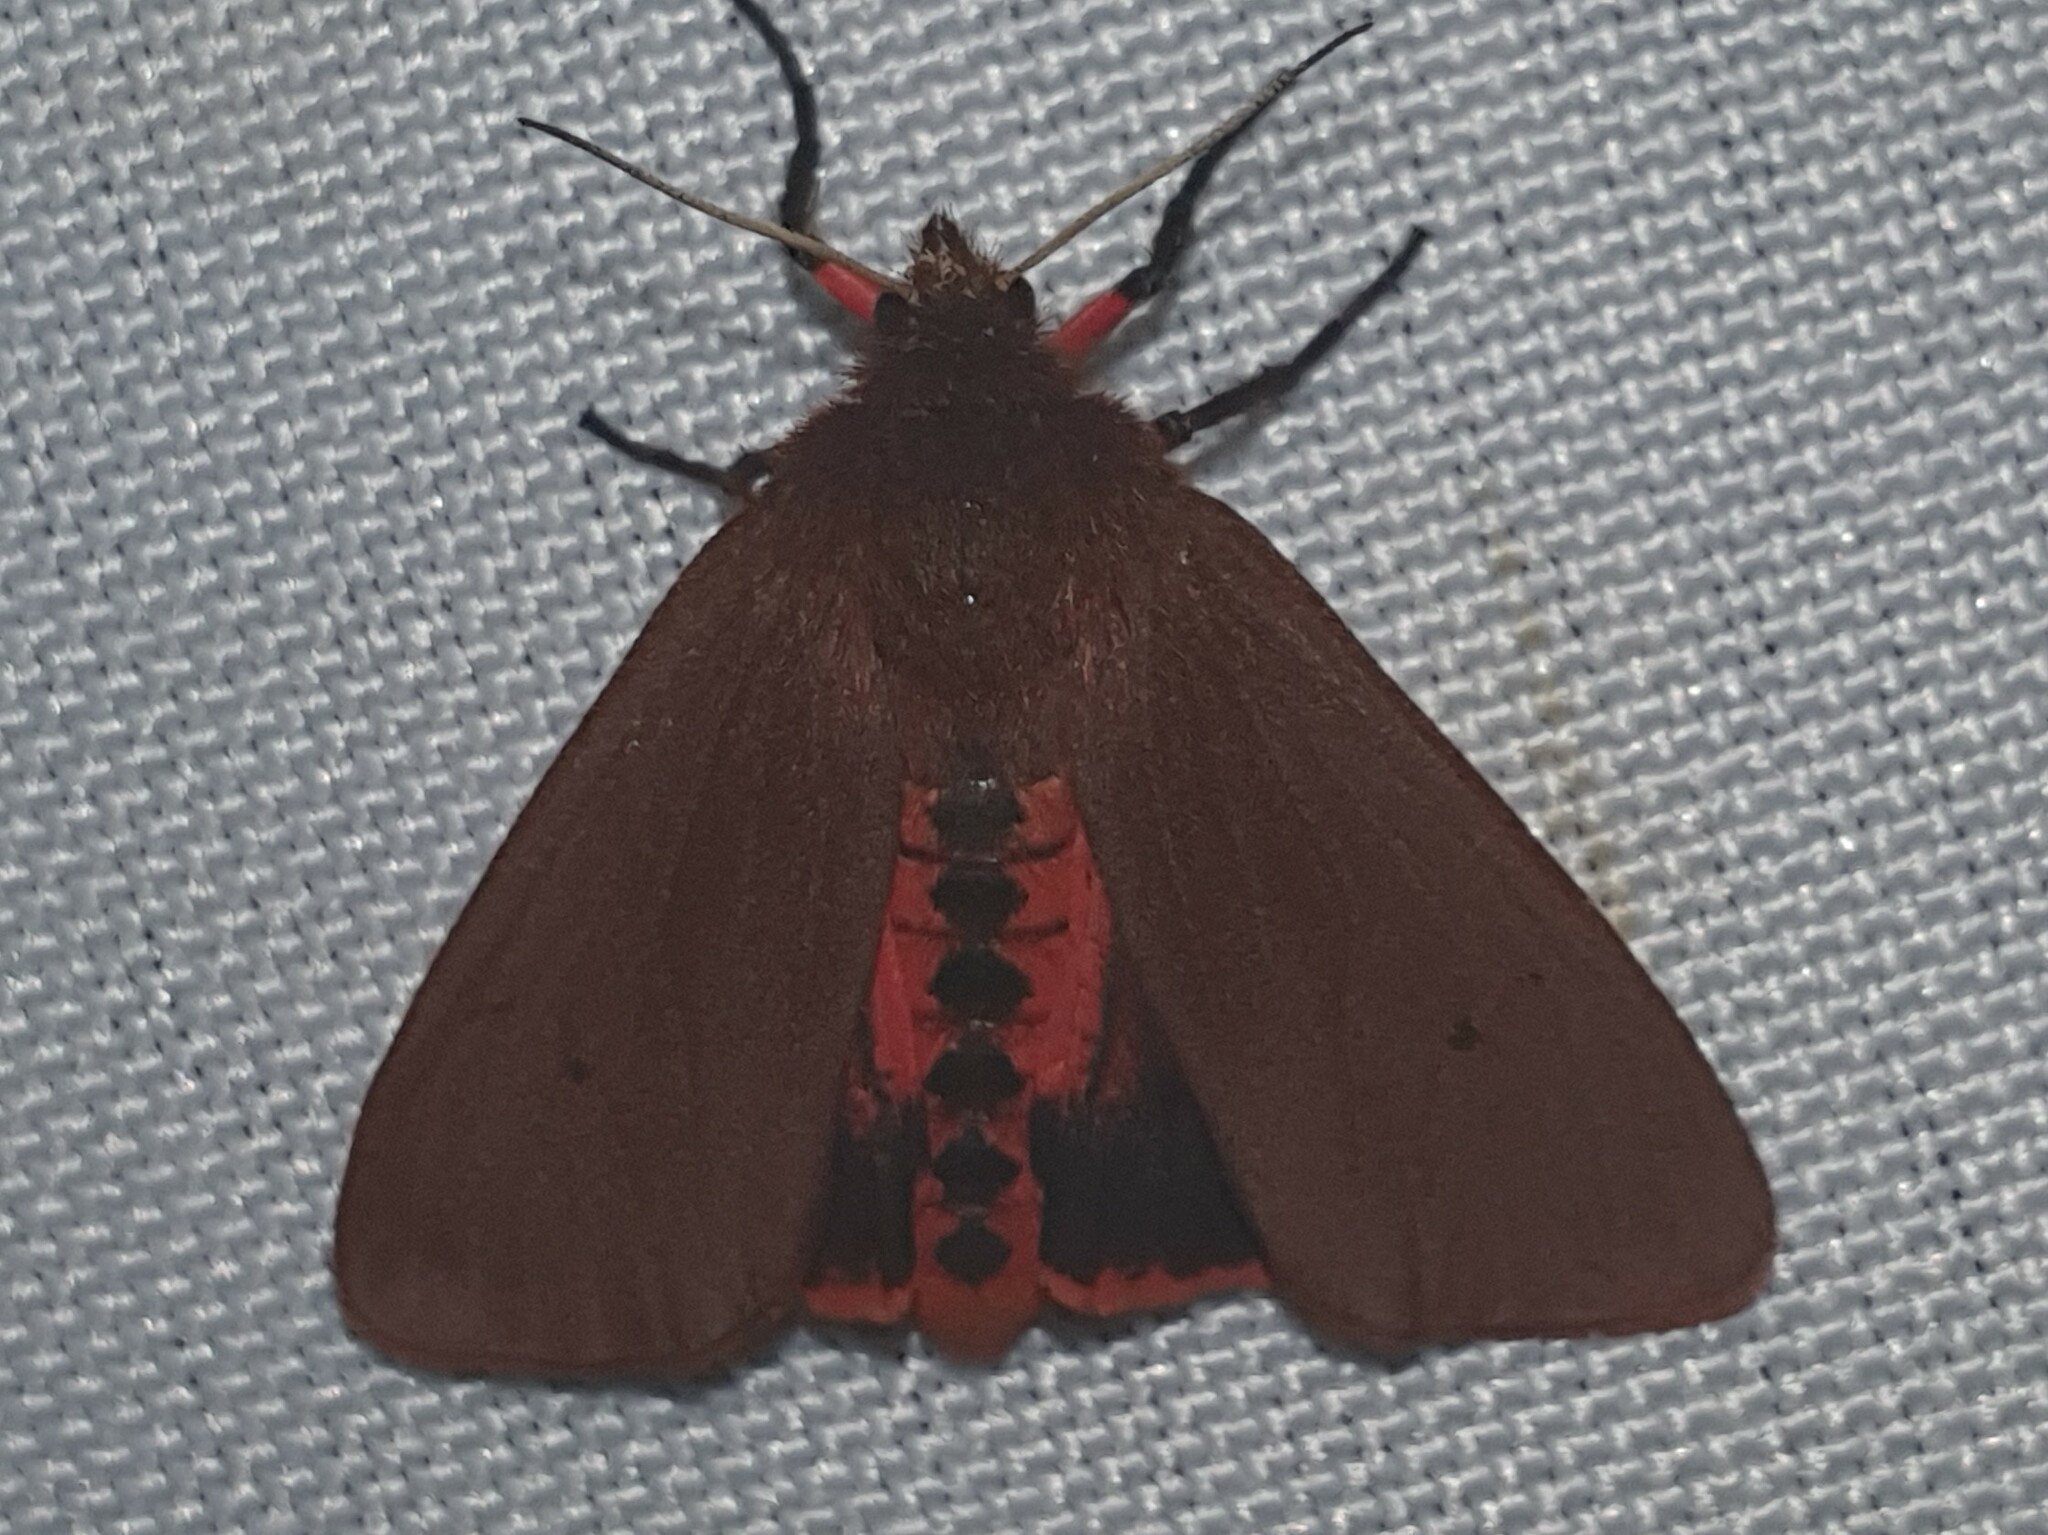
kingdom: Animalia
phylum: Arthropoda
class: Insecta
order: Lepidoptera
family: Erebidae
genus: Phragmatobia
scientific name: Phragmatobia fuliginosa
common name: Ruby tiger
